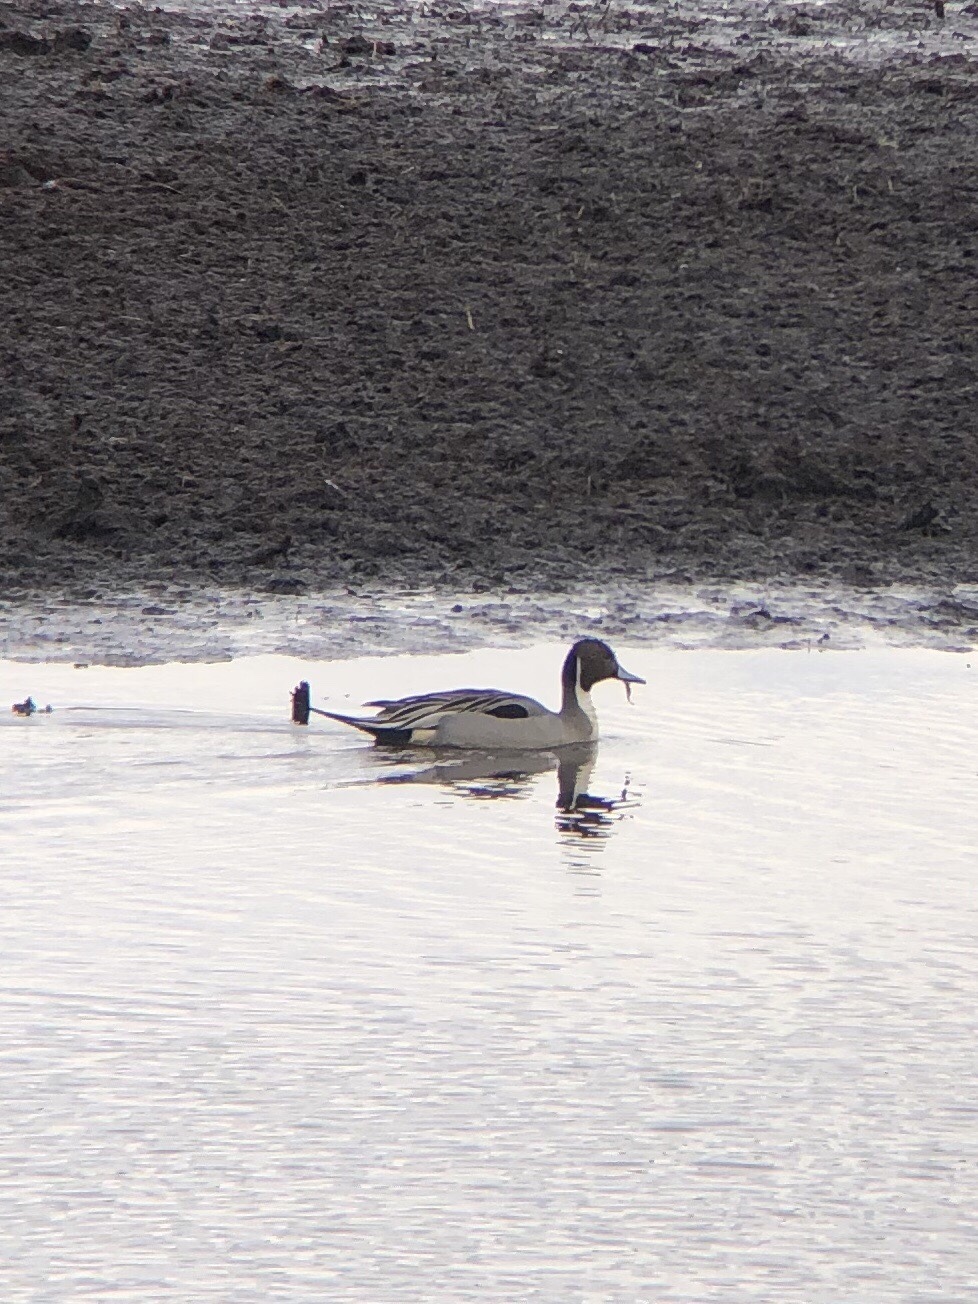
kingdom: Animalia
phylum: Chordata
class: Aves
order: Anseriformes
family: Anatidae
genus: Anas
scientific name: Anas acuta
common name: Northern pintail
